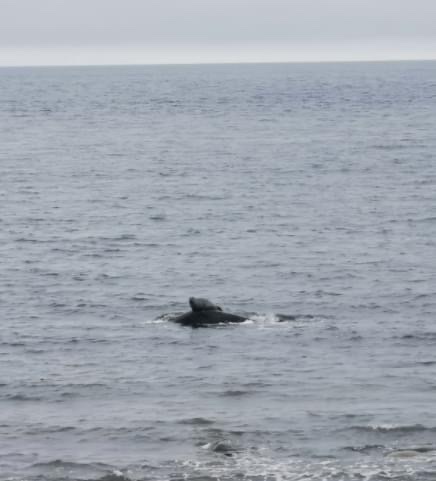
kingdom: Animalia
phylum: Chordata
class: Mammalia
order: Carnivora
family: Phocidae
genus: Phoca
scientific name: Phoca vitulina
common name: Harbor seal
